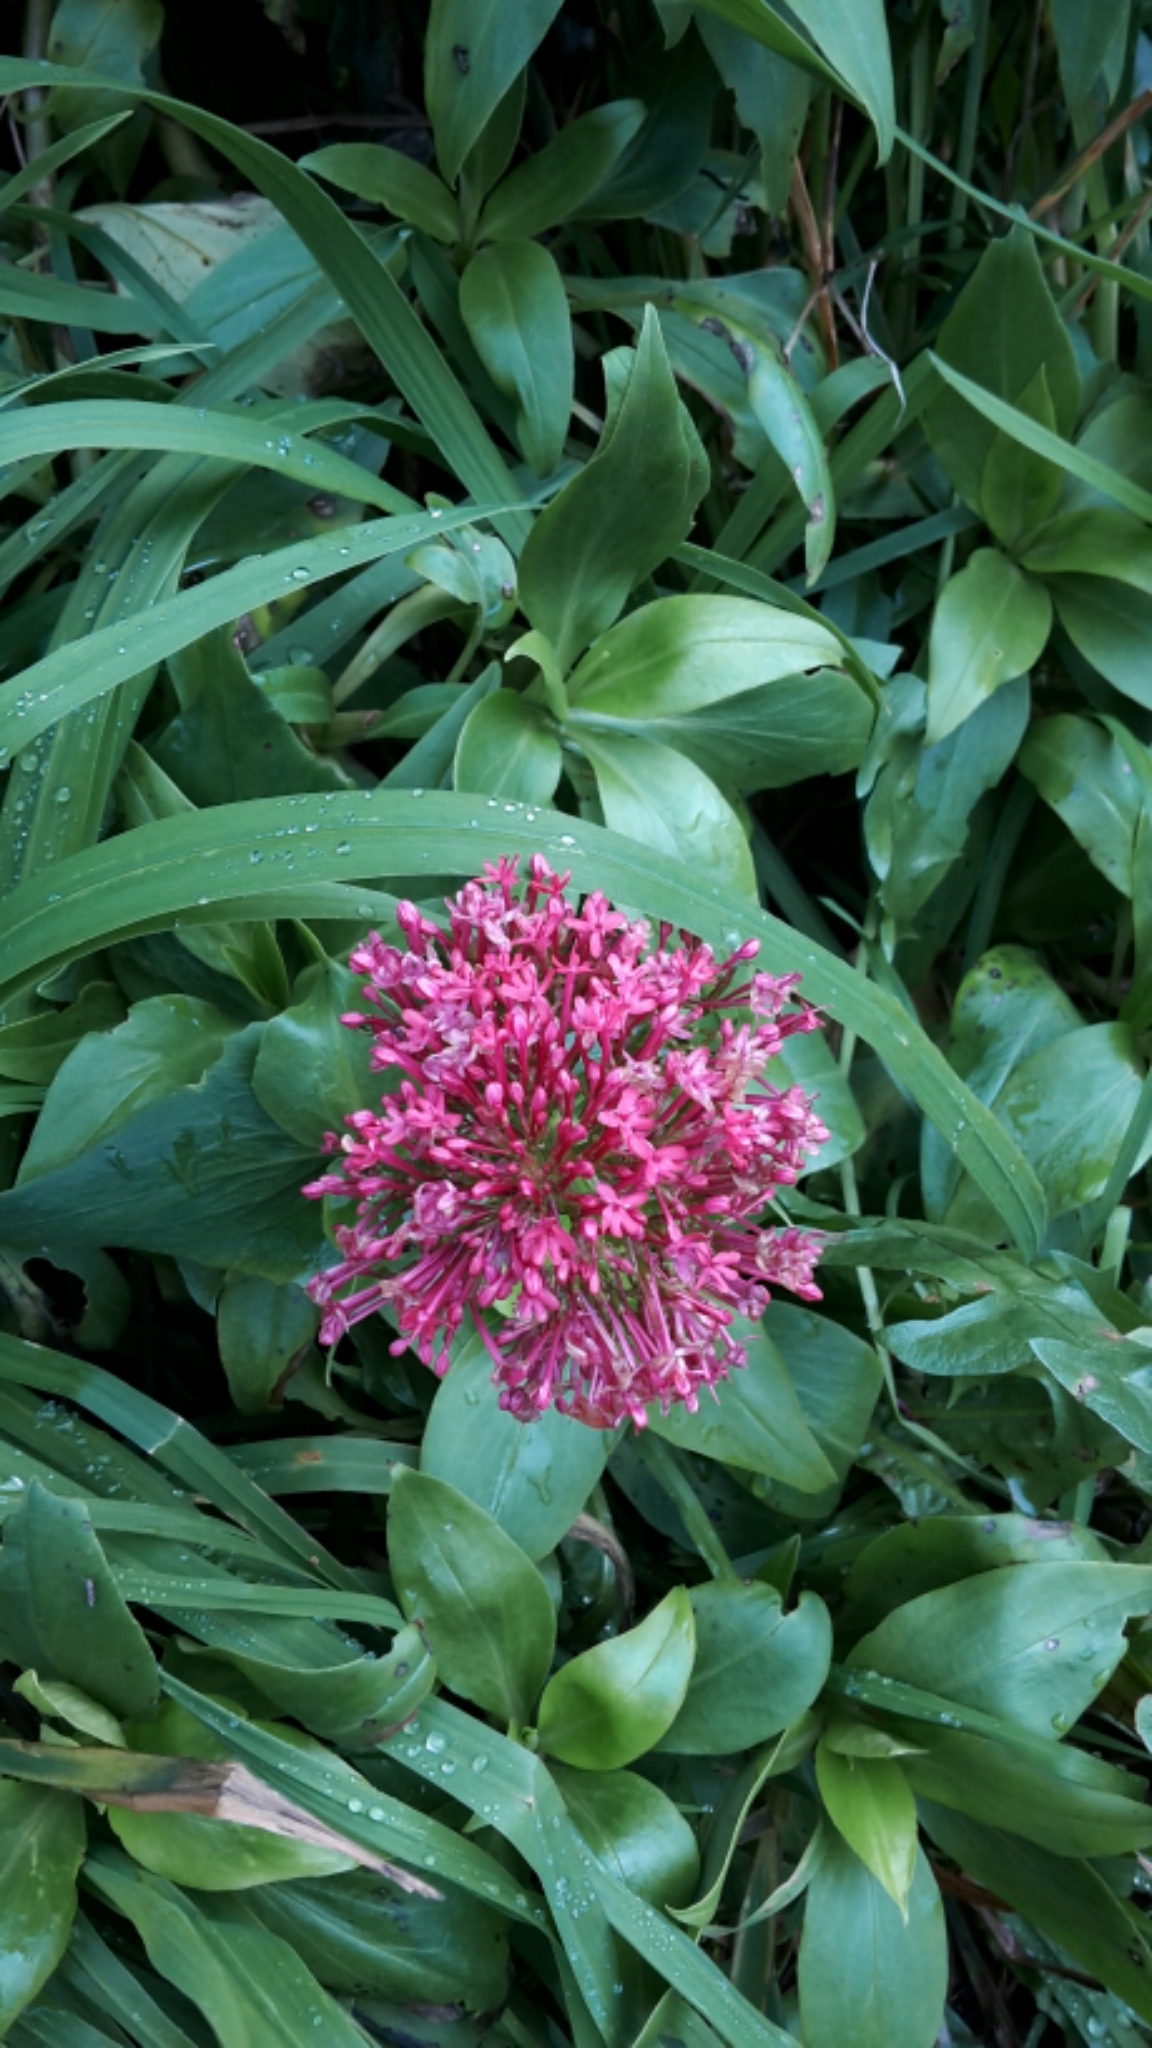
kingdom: Plantae
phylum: Tracheophyta
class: Magnoliopsida
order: Dipsacales
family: Caprifoliaceae
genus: Centranthus
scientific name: Centranthus ruber
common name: Red valerian
